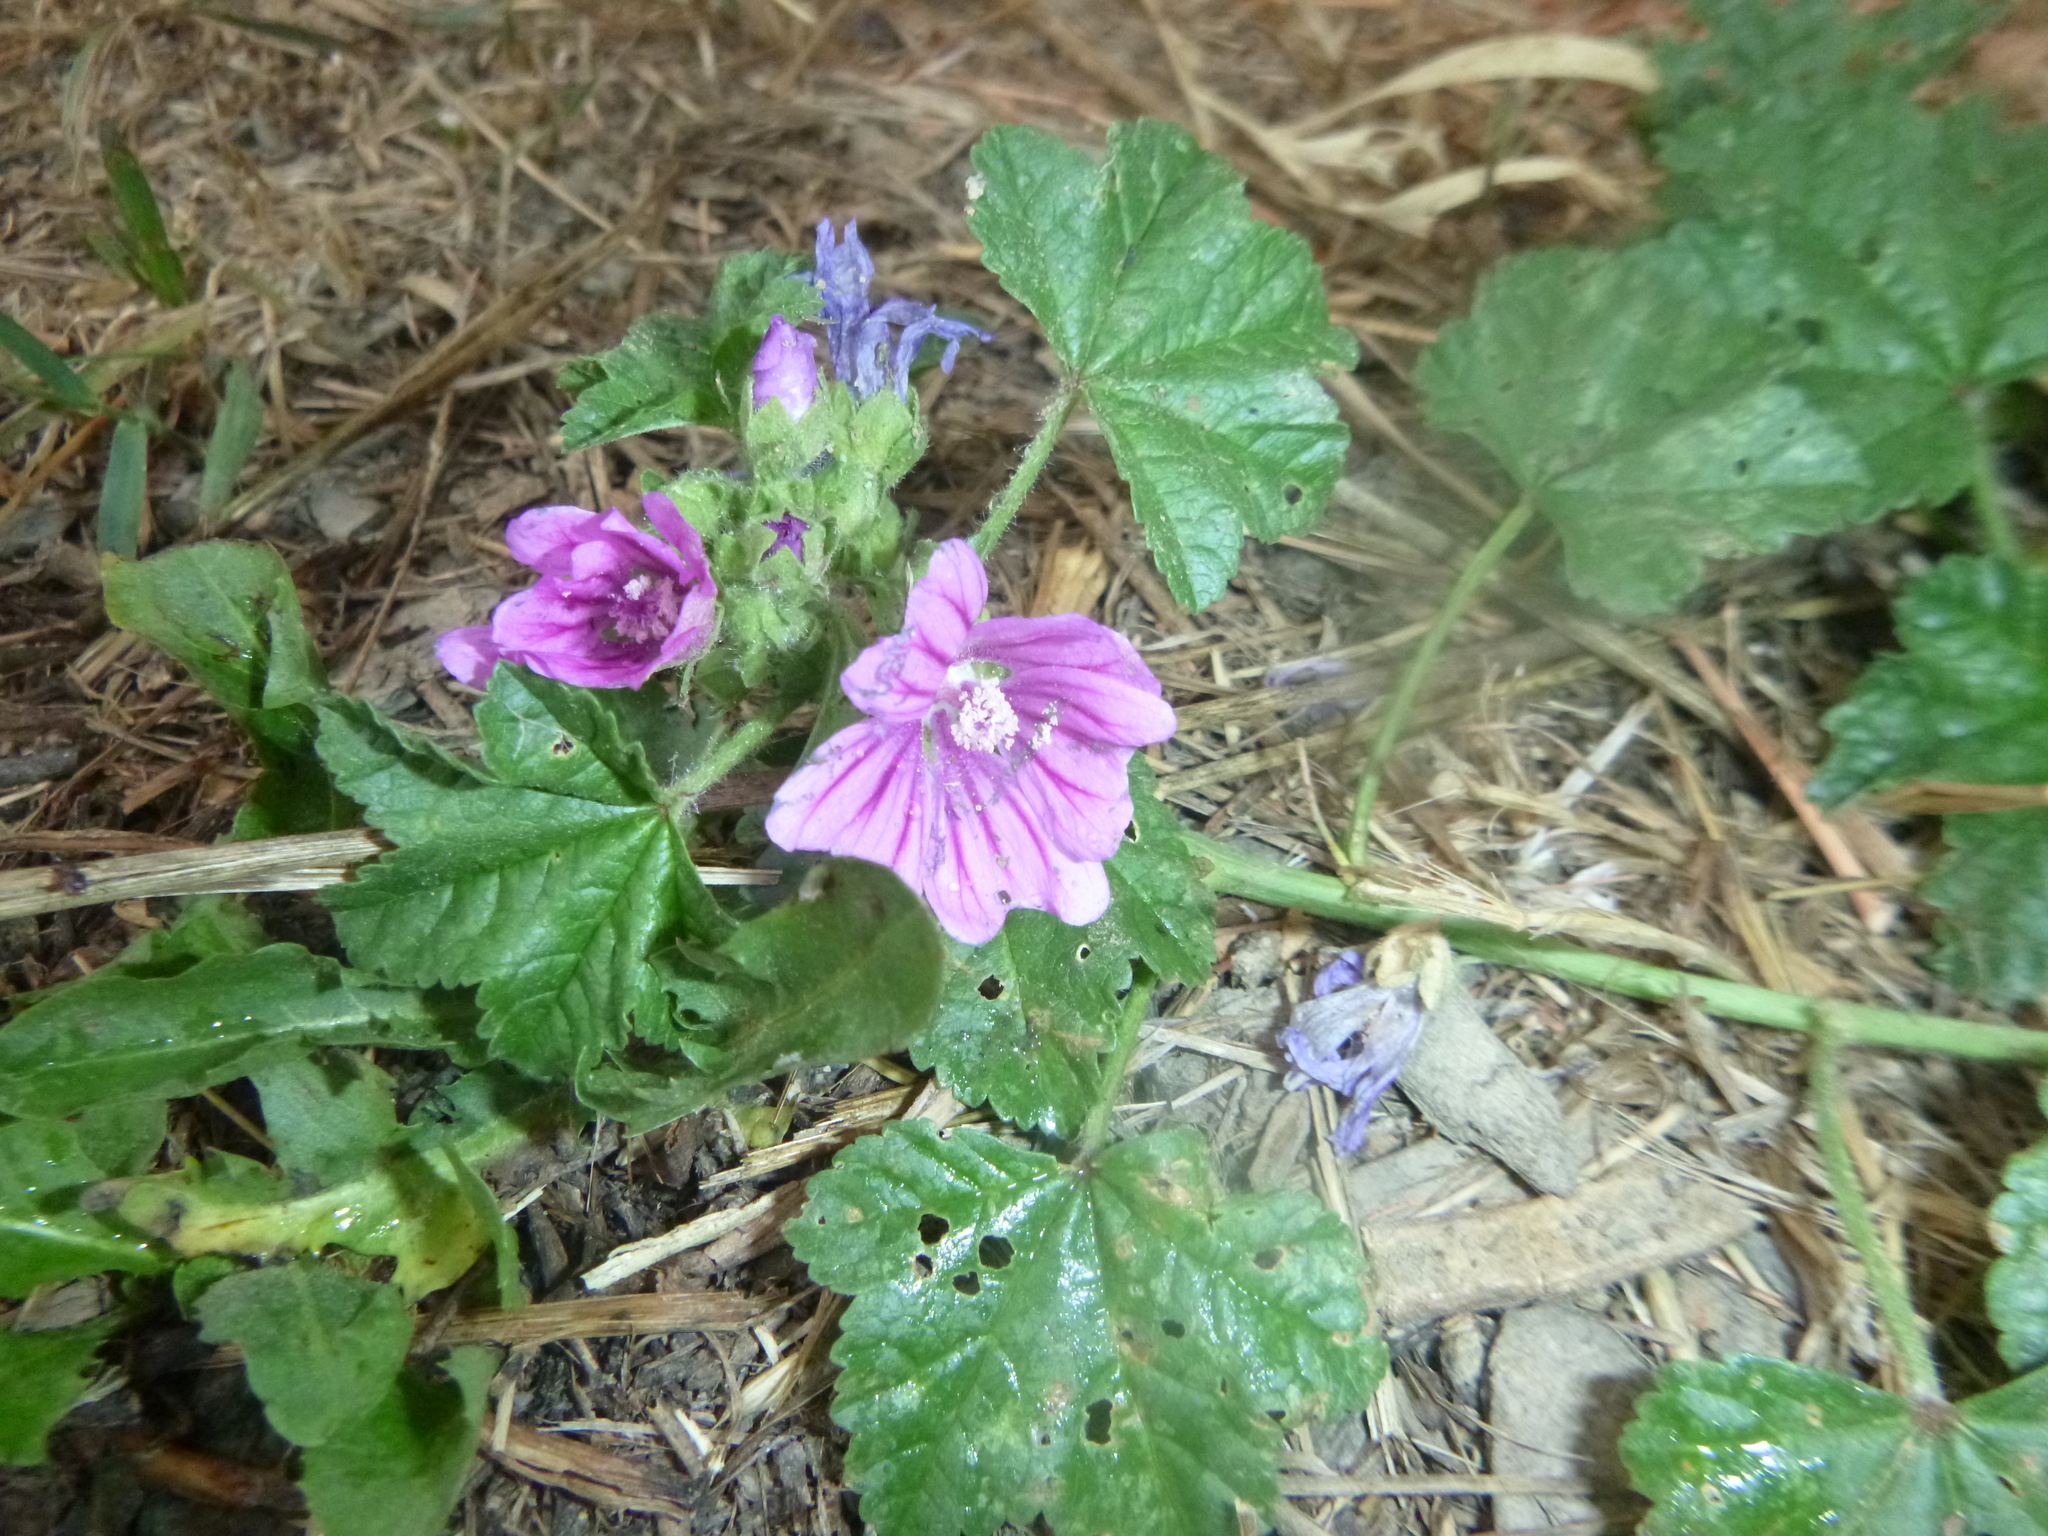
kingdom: Plantae
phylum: Tracheophyta
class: Magnoliopsida
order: Malvales
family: Malvaceae
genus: Malva
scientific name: Malva sylvestris
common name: Common mallow
